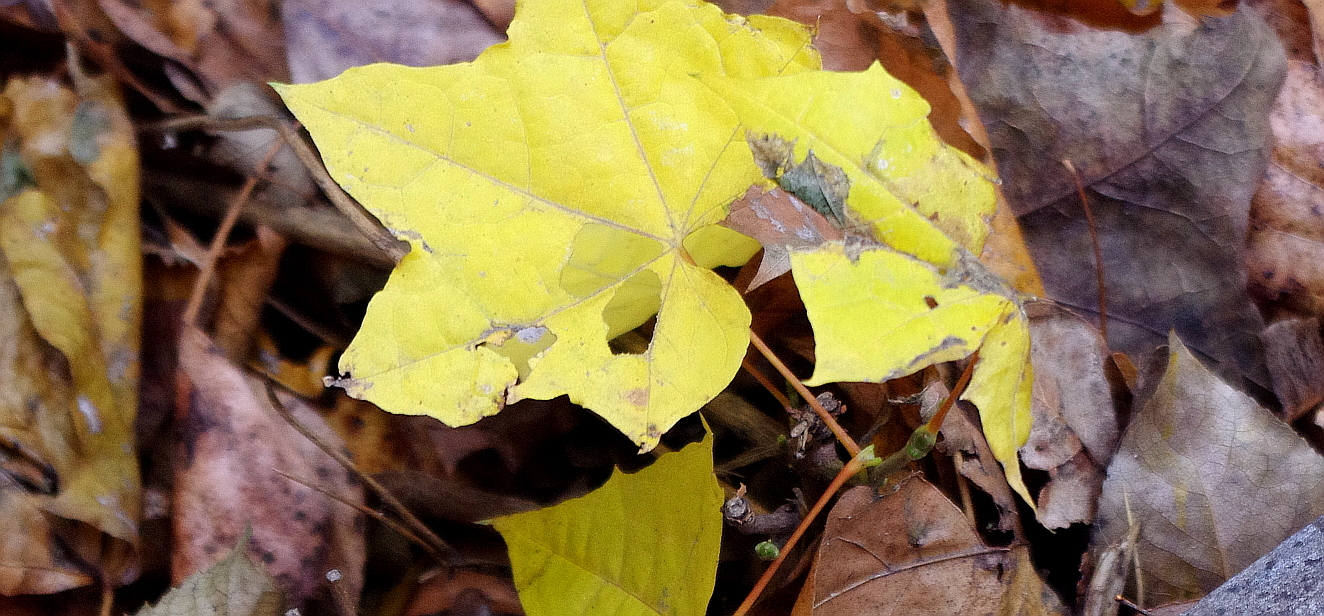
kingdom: Plantae
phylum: Tracheophyta
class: Magnoliopsida
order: Sapindales
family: Sapindaceae
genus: Acer
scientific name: Acer platanoides
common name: Norway maple
